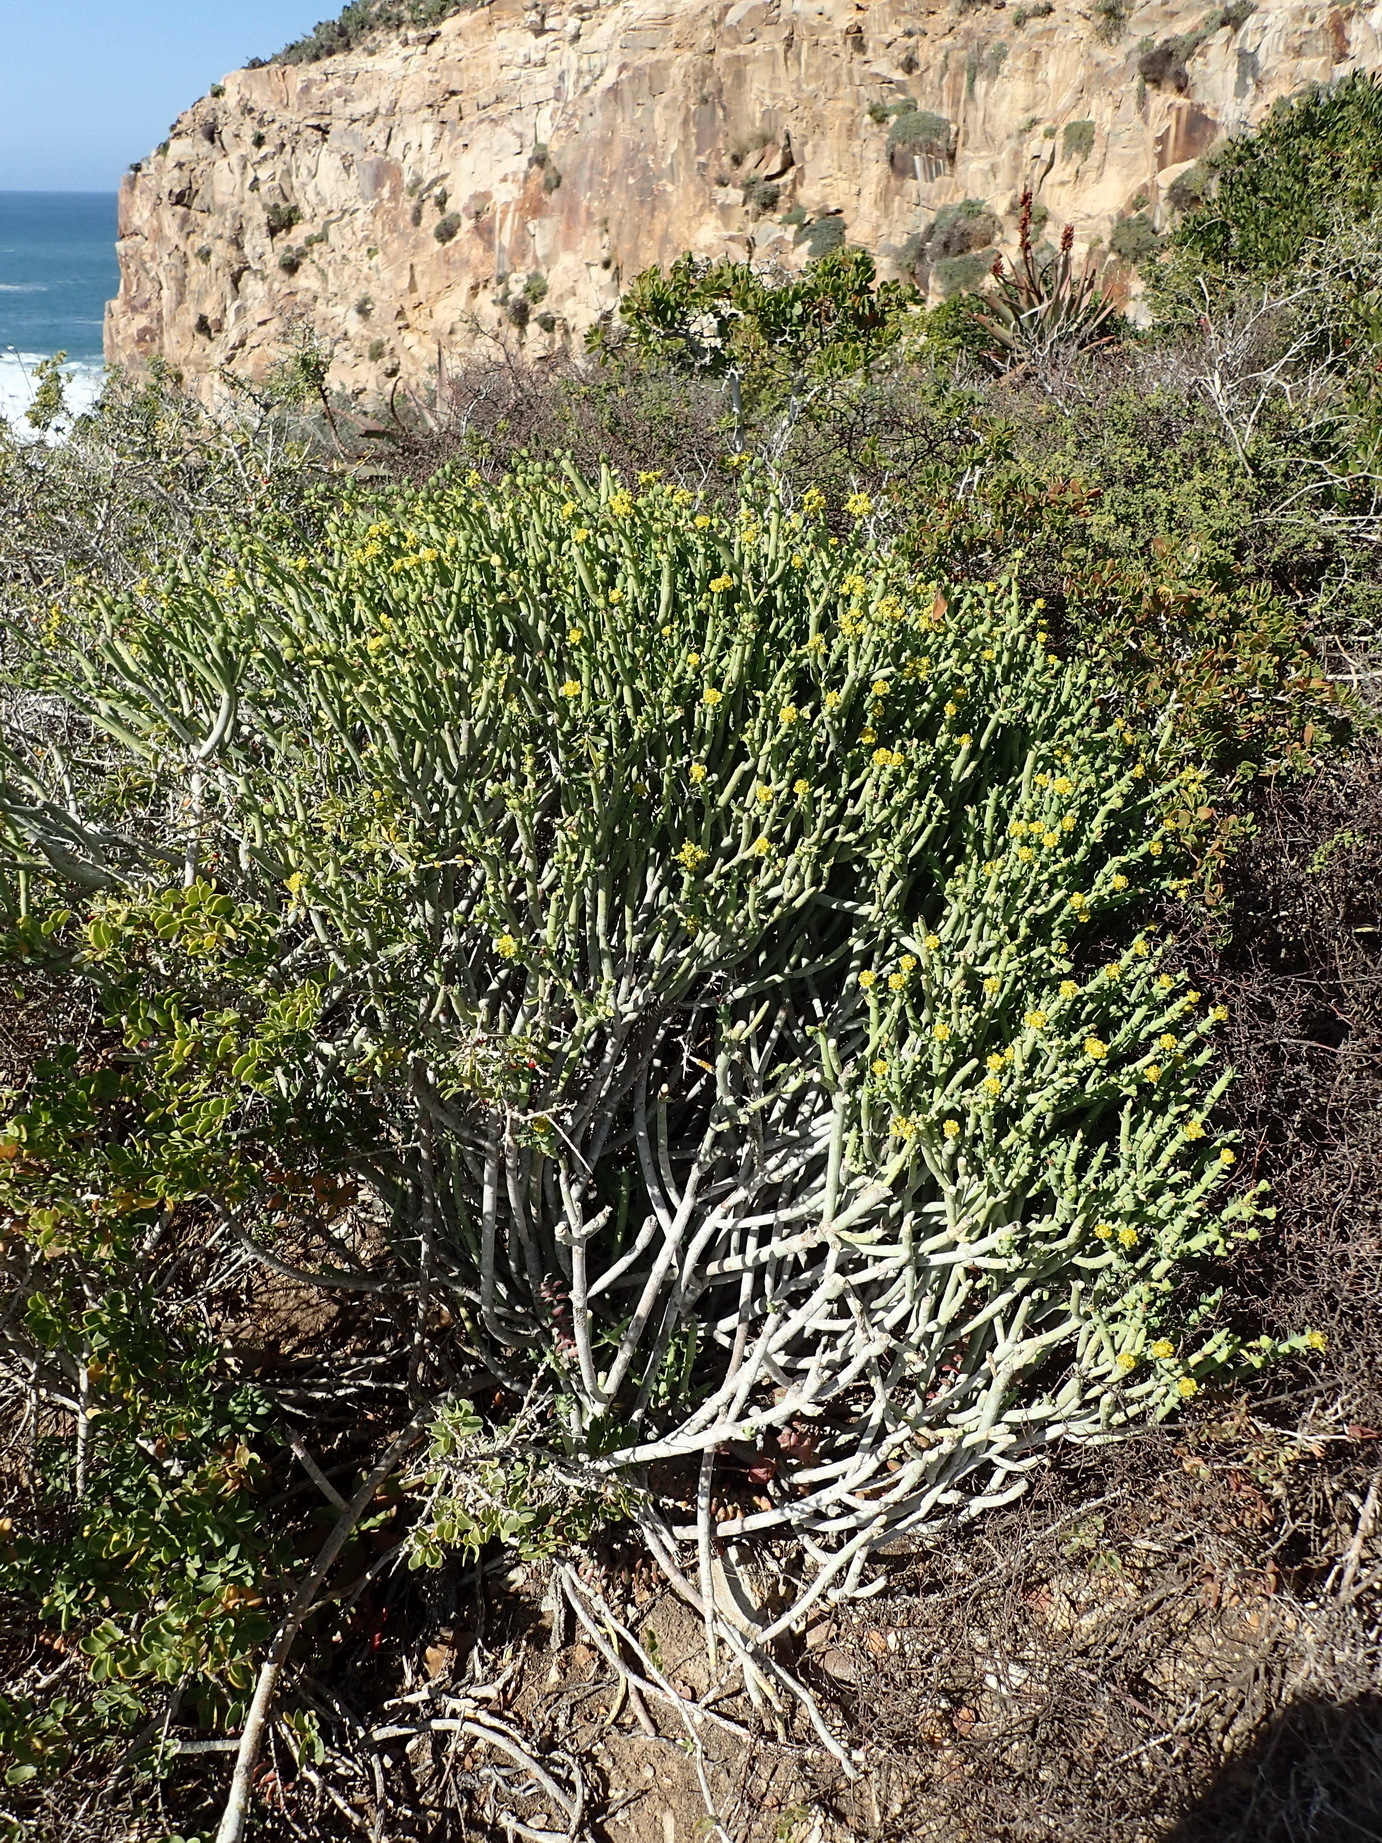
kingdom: Plantae
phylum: Tracheophyta
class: Magnoliopsida
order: Malpighiales
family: Euphorbiaceae
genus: Euphorbia
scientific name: Euphorbia mauritanica
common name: Jackal's-food
